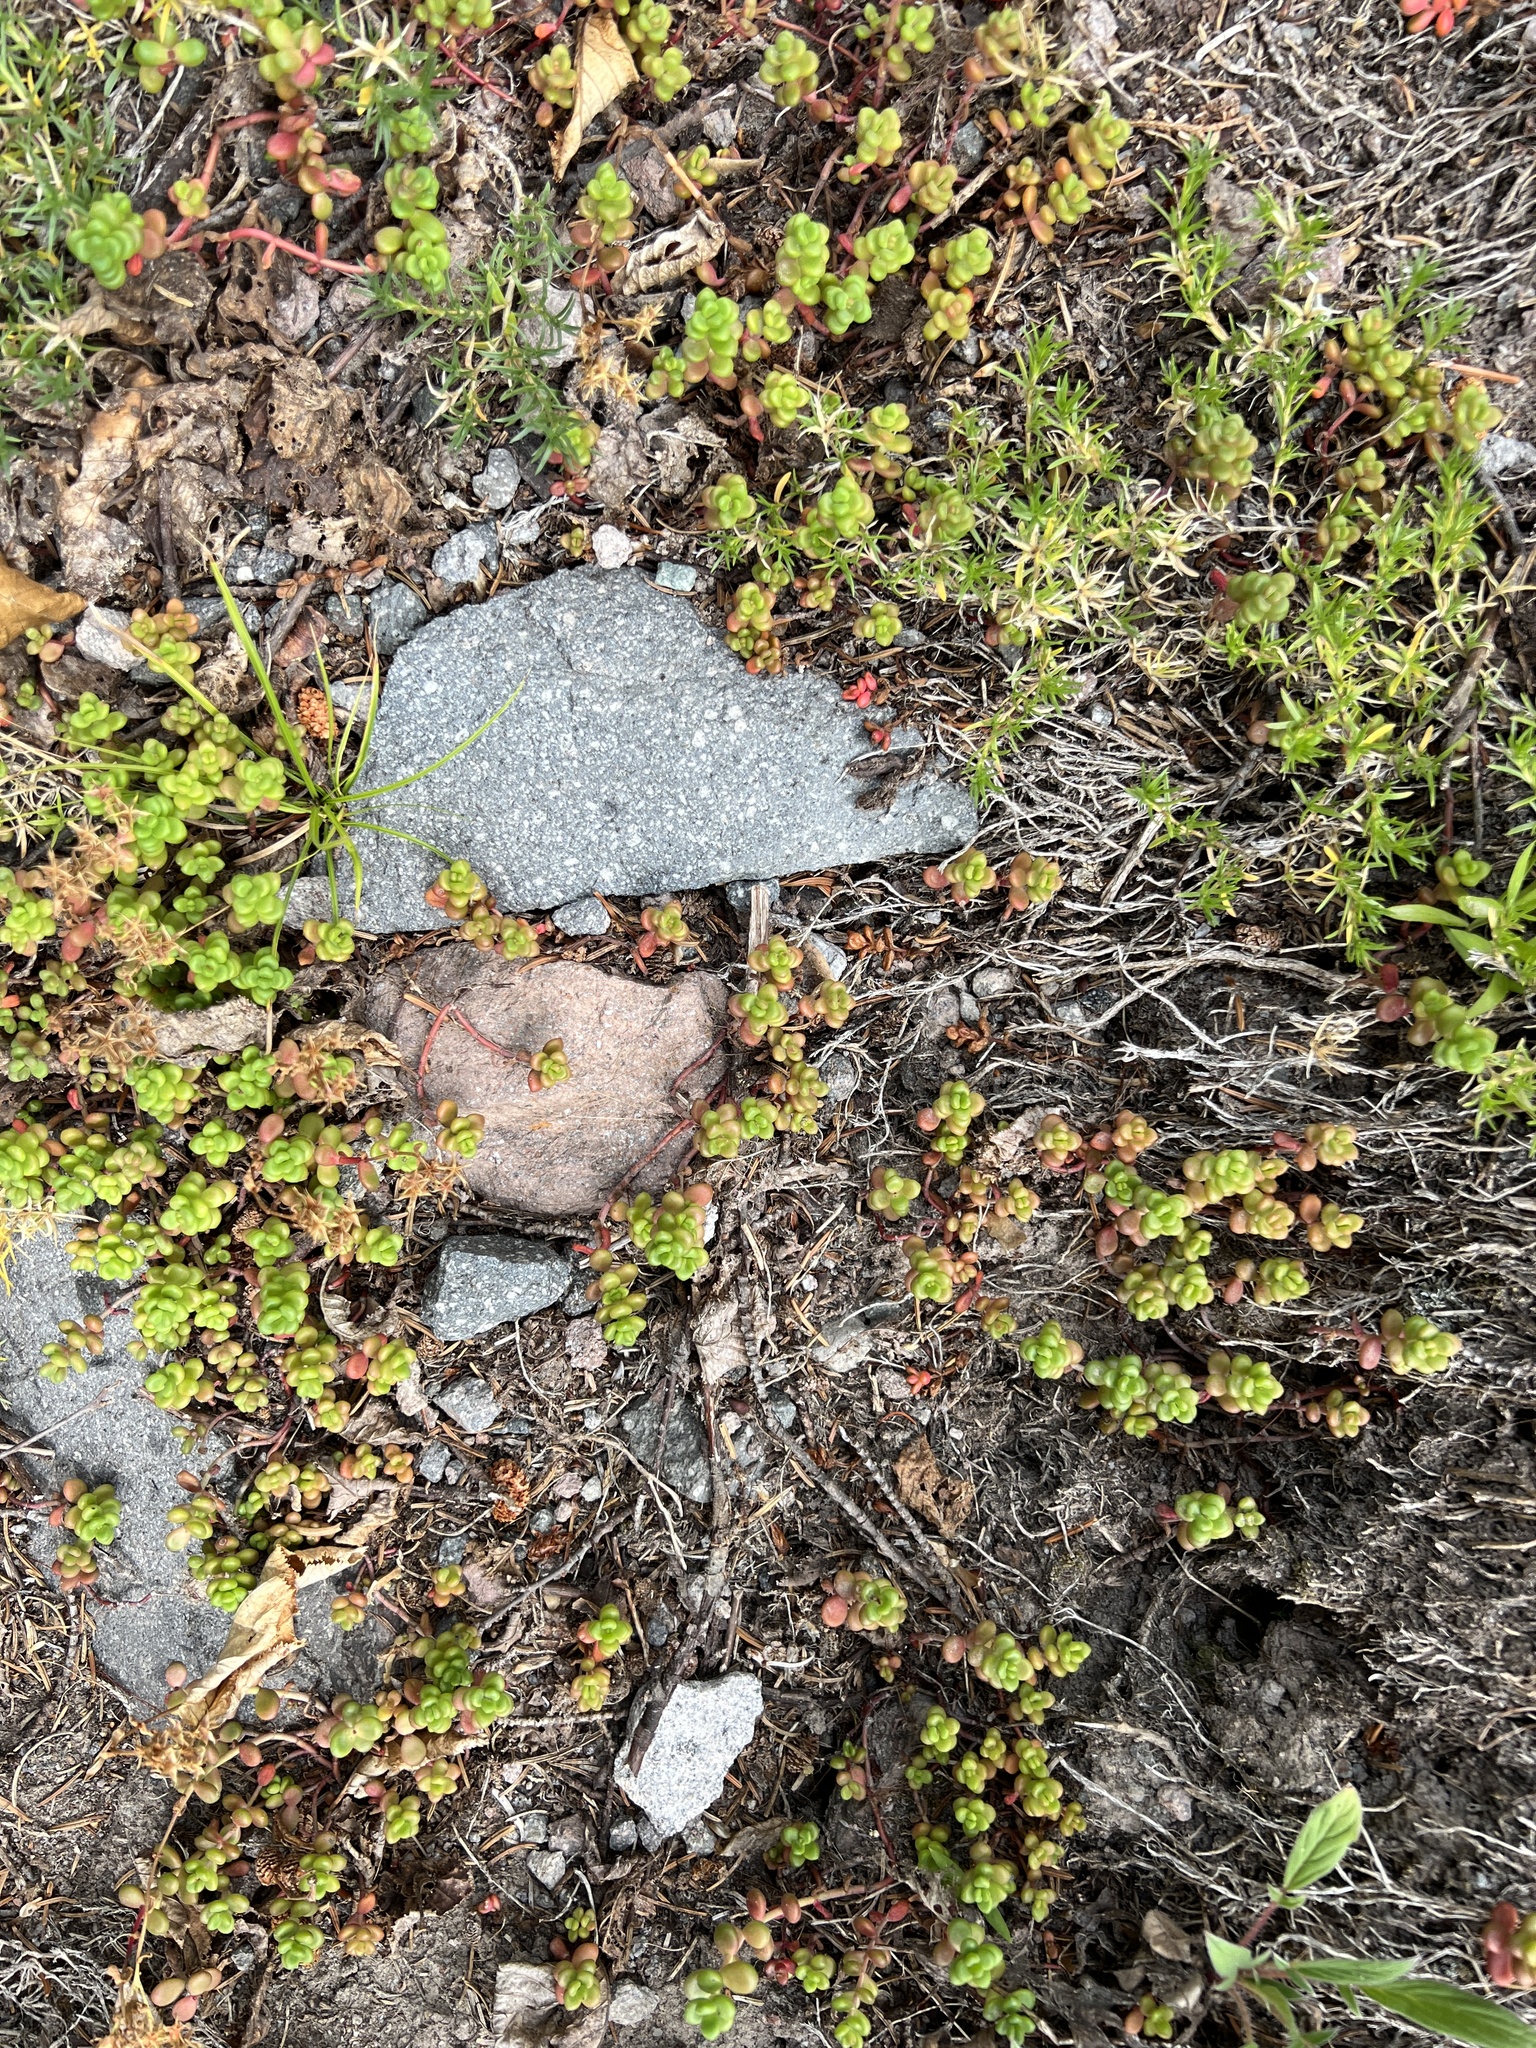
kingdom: Plantae
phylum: Tracheophyta
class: Magnoliopsida
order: Saxifragales
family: Crassulaceae
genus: Sedum
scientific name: Sedum divergens
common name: Cascade stonecrop
